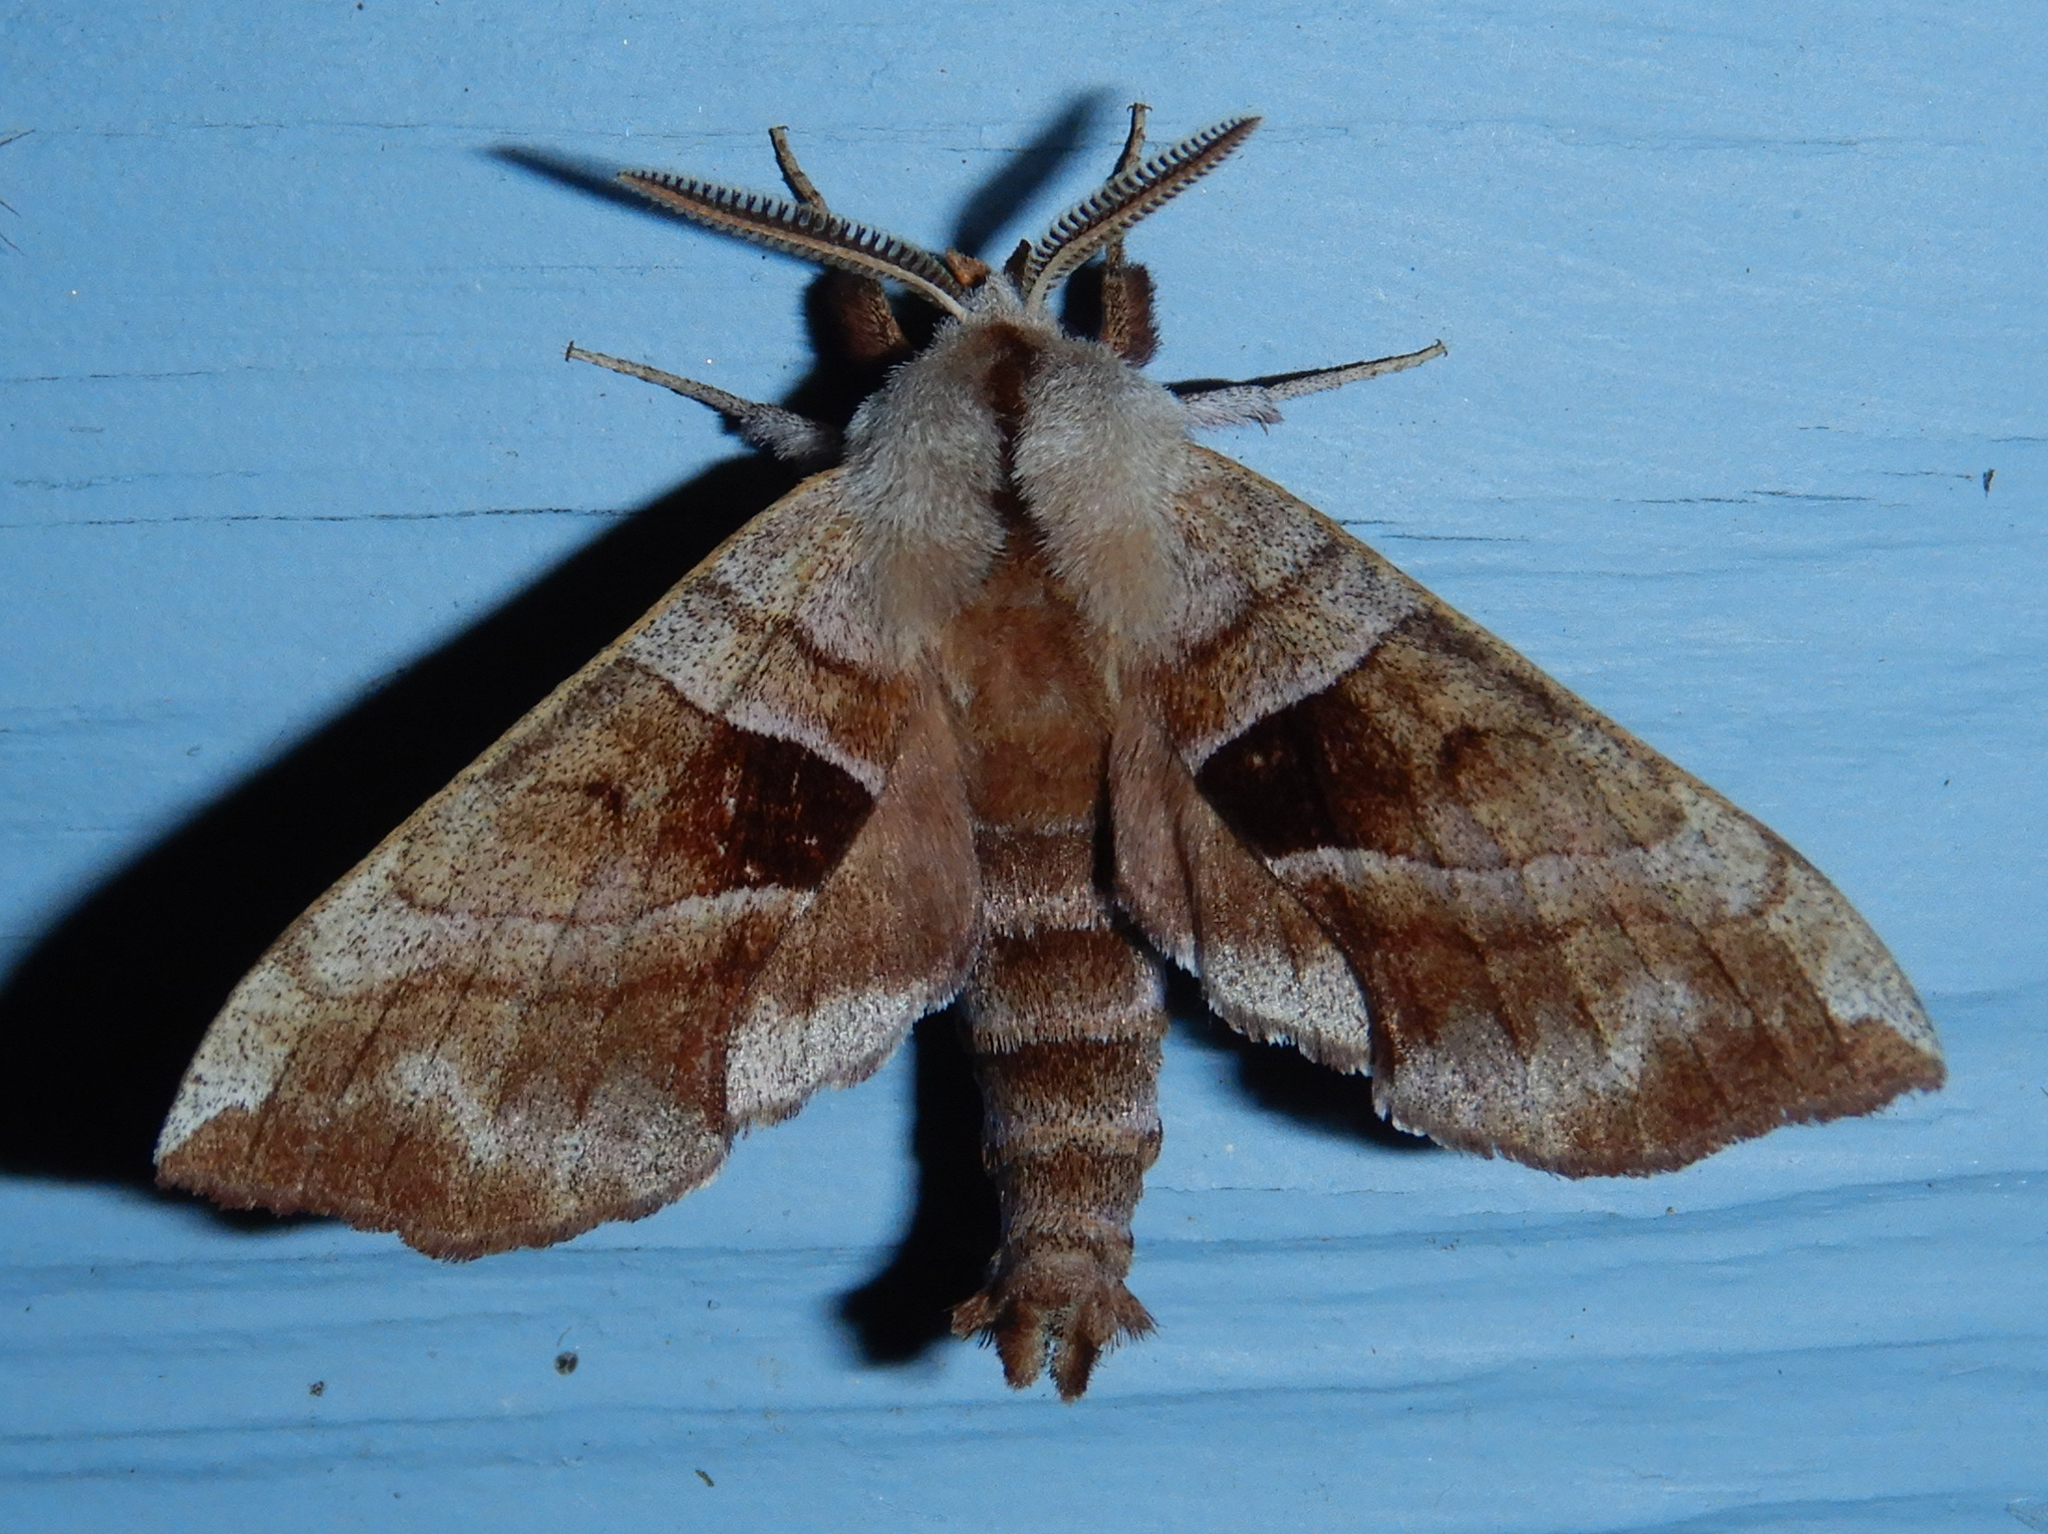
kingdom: Animalia
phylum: Arthropoda
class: Insecta
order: Lepidoptera
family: Sphingidae
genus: Amorpha
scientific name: Amorpha juglandis
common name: Walnut sphinx
